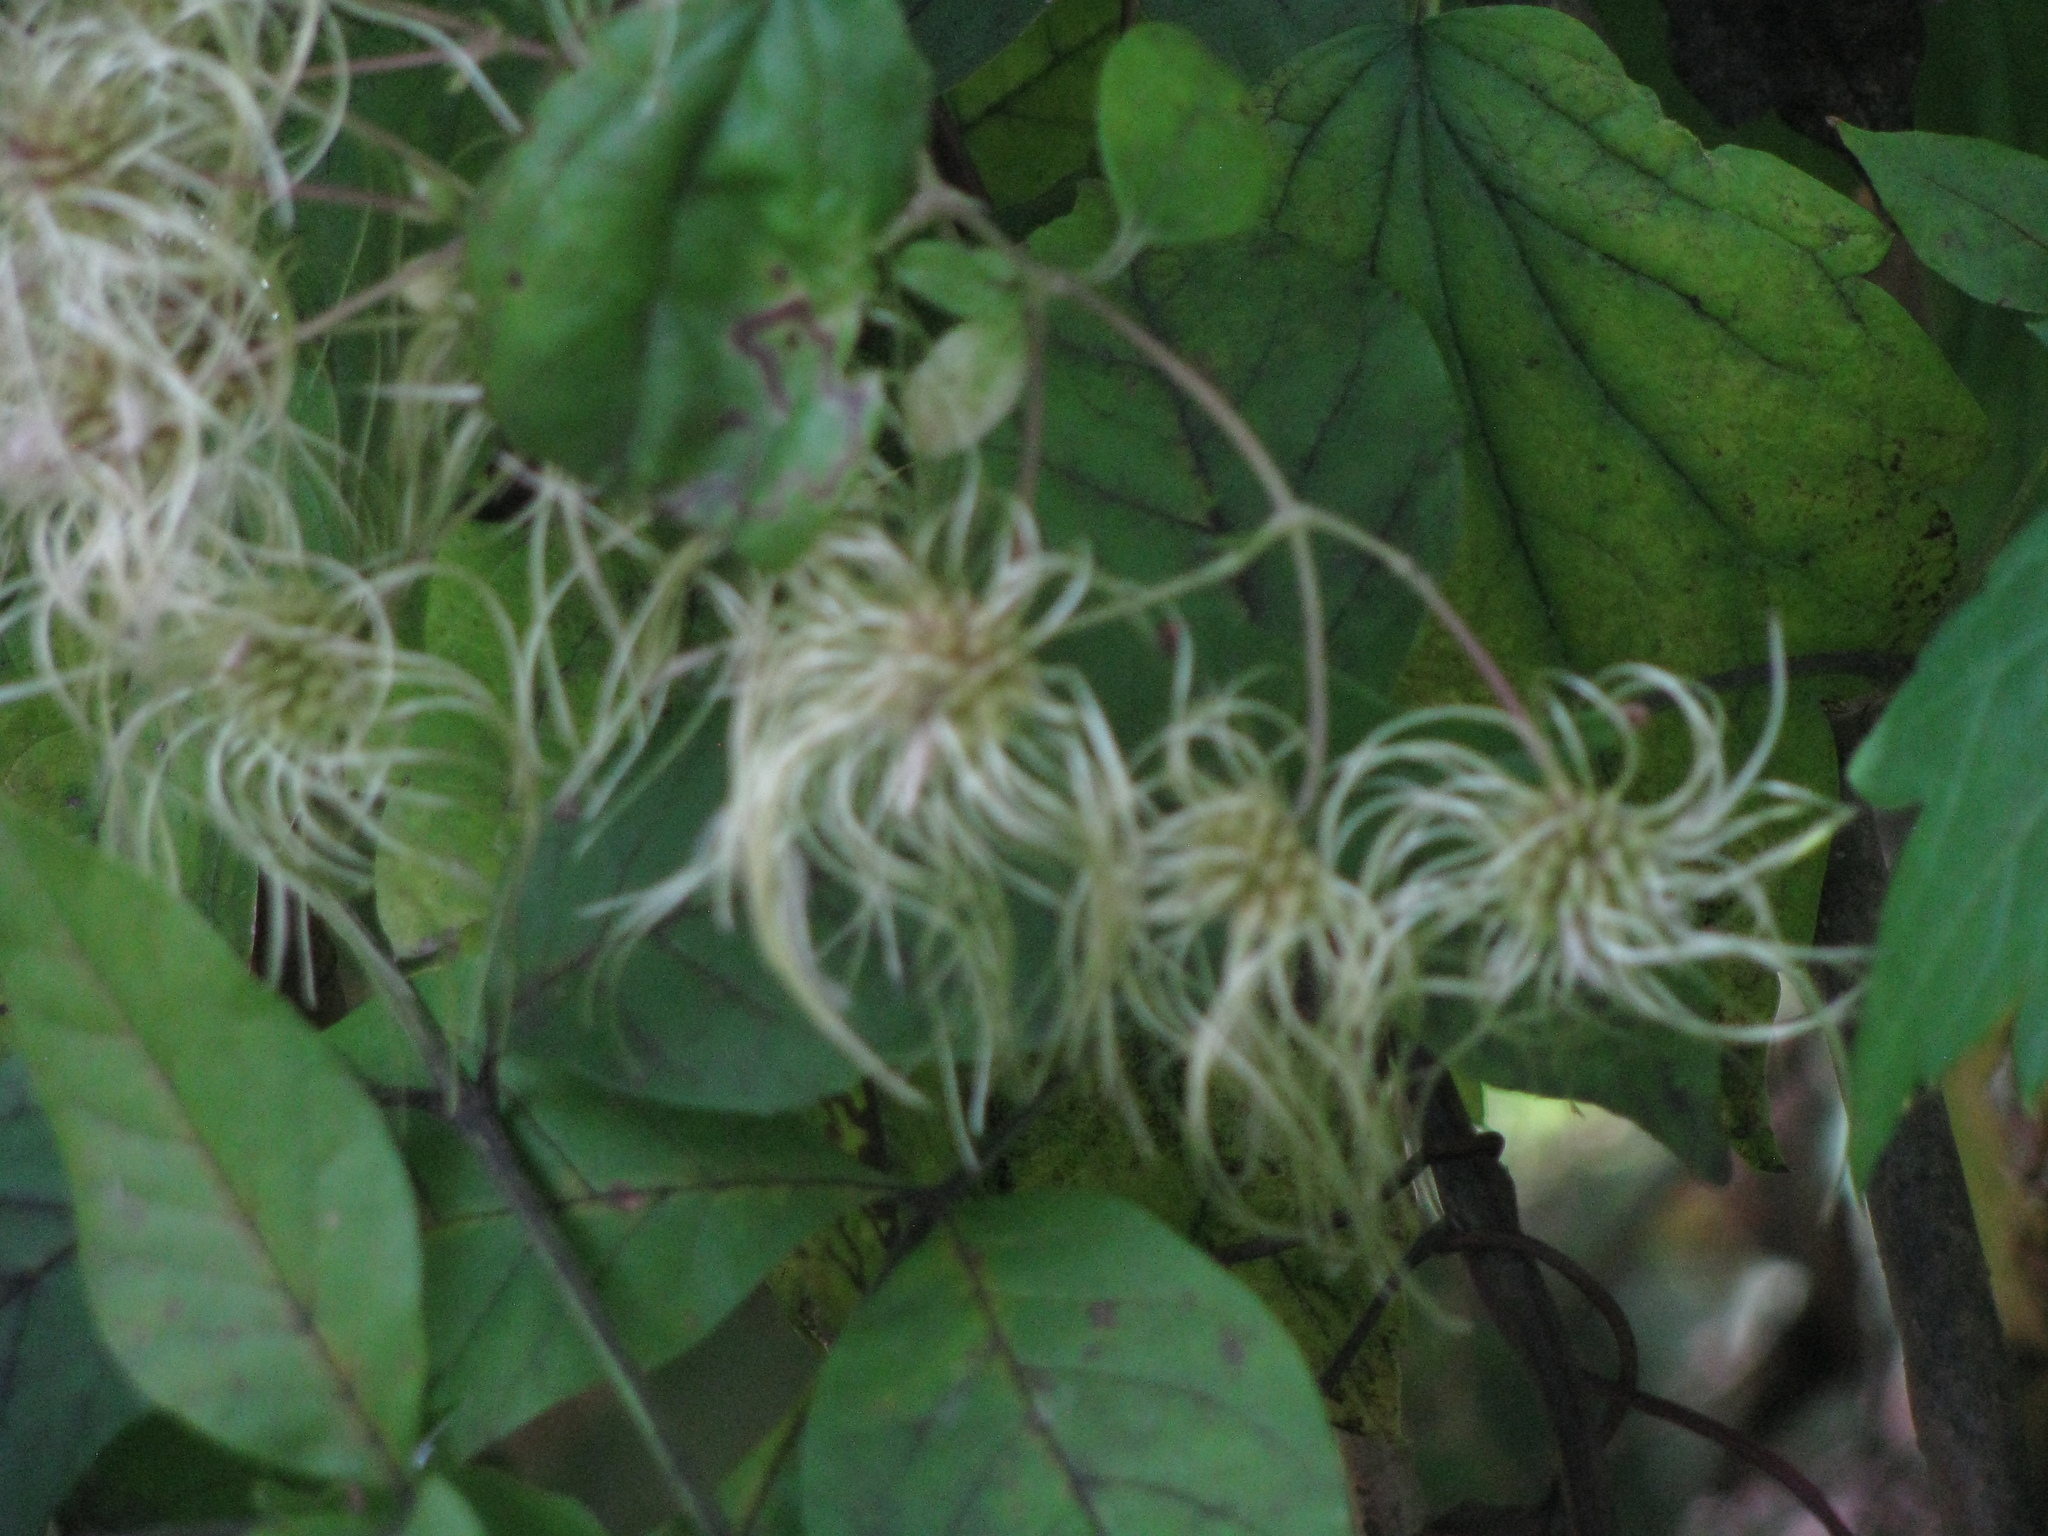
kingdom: Plantae
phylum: Tracheophyta
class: Magnoliopsida
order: Ranunculales
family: Ranunculaceae
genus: Clematis
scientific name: Clematis virginiana
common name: Virgin's-bower
